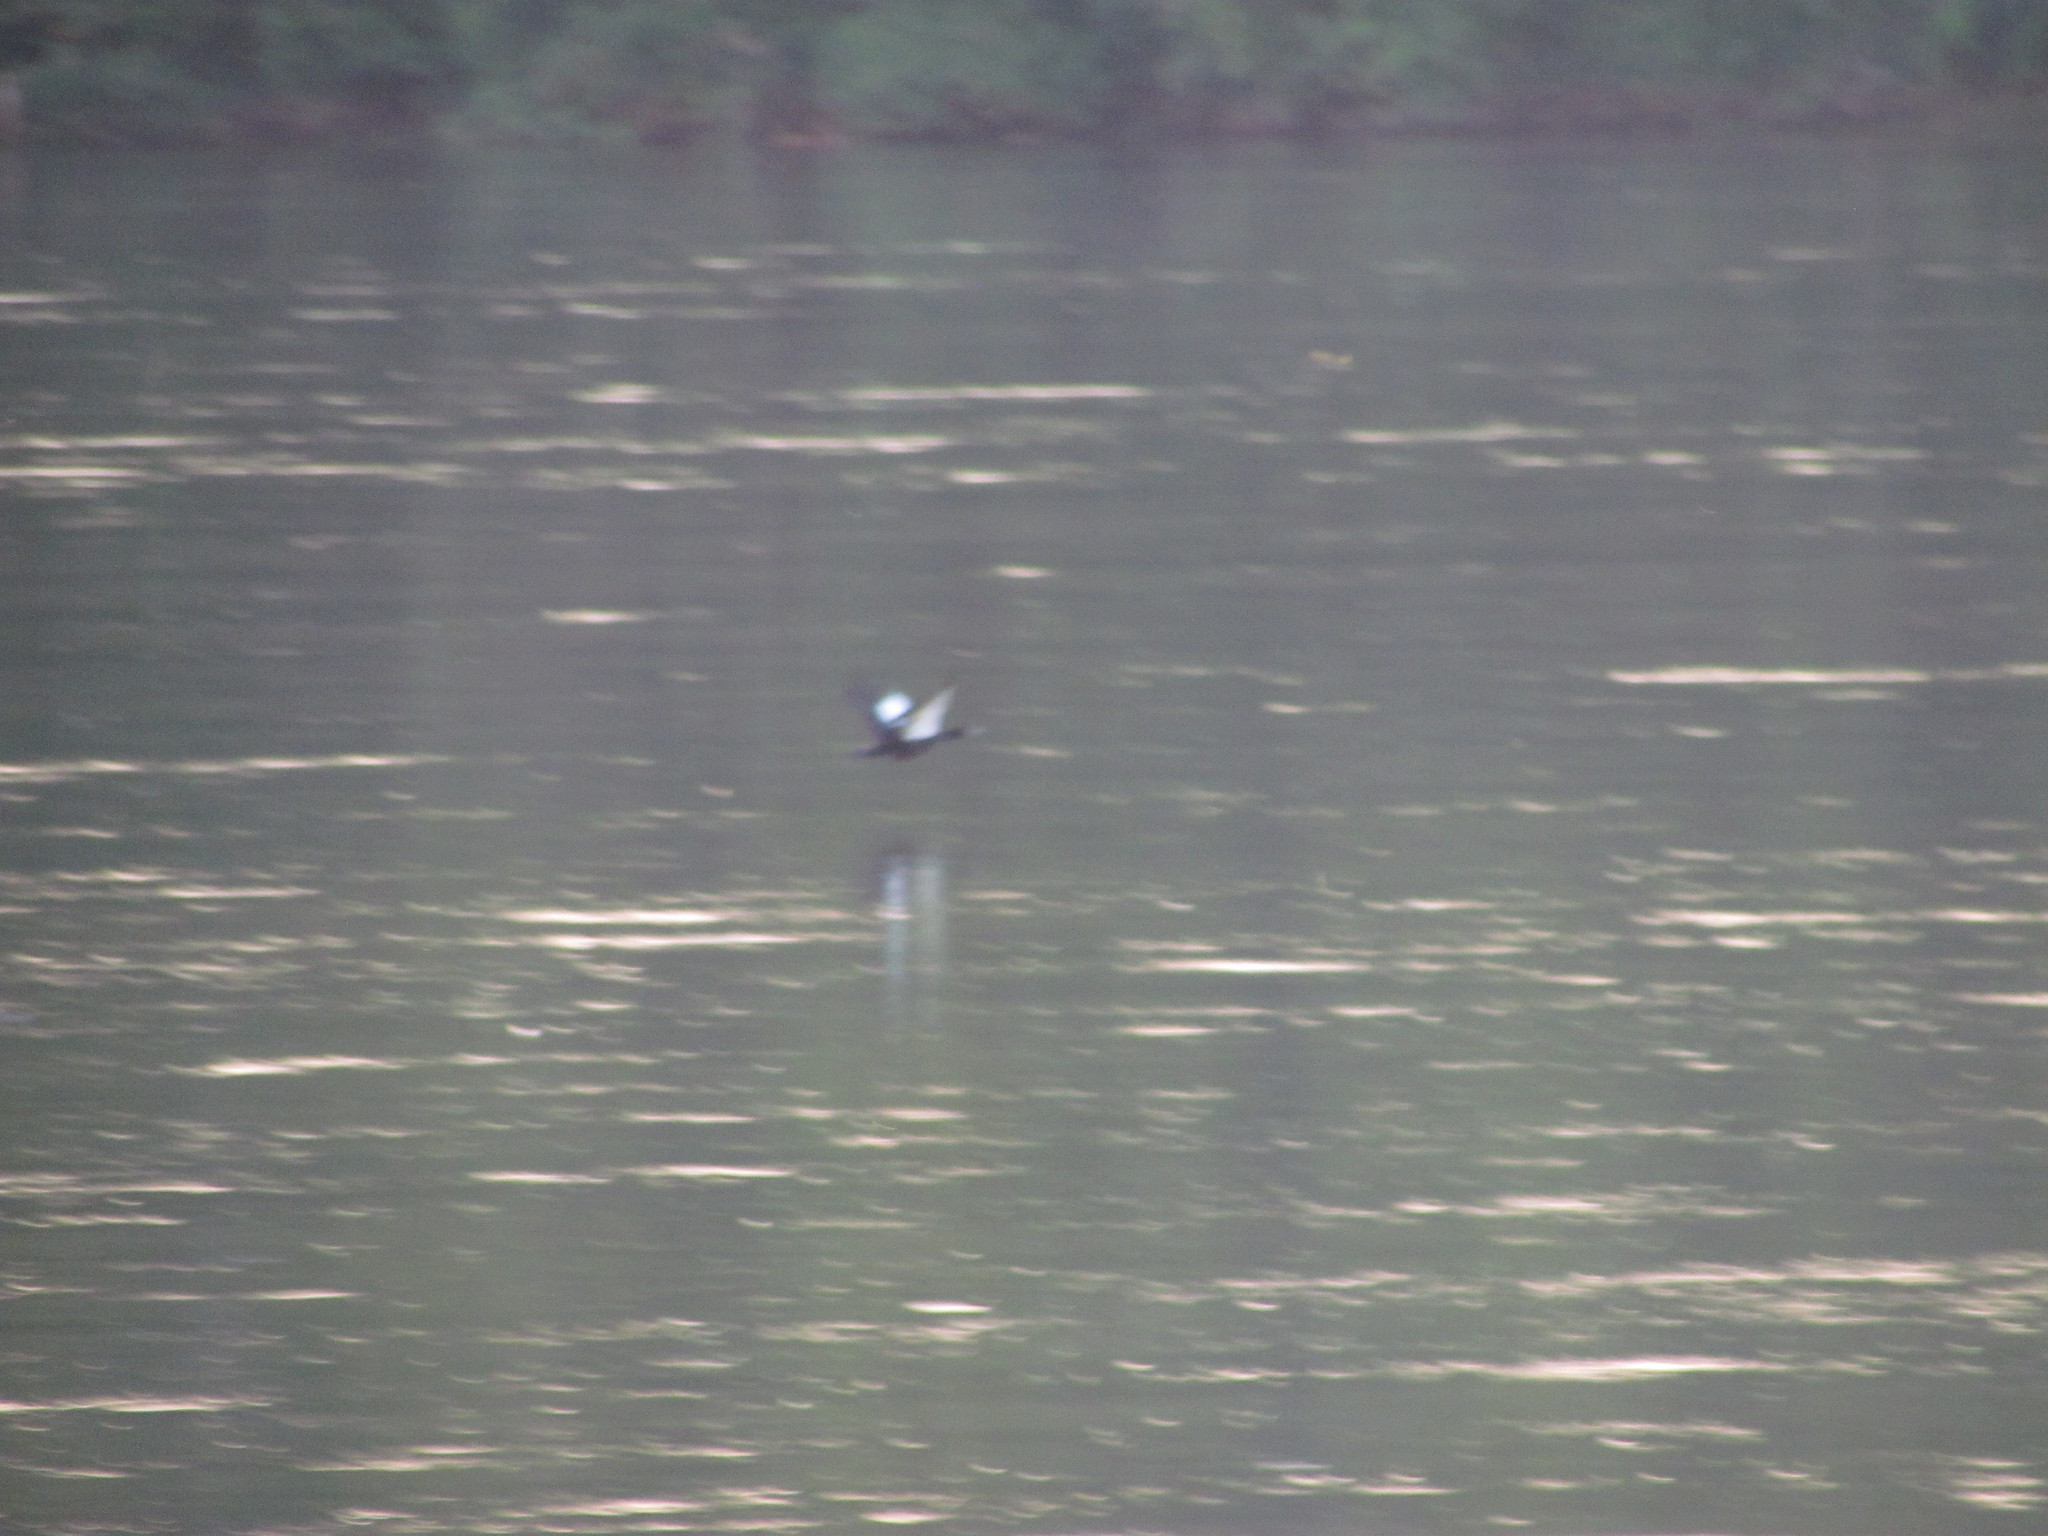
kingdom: Animalia
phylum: Chordata
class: Aves
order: Anseriformes
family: Anatidae
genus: Cairina
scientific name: Cairina moschata
